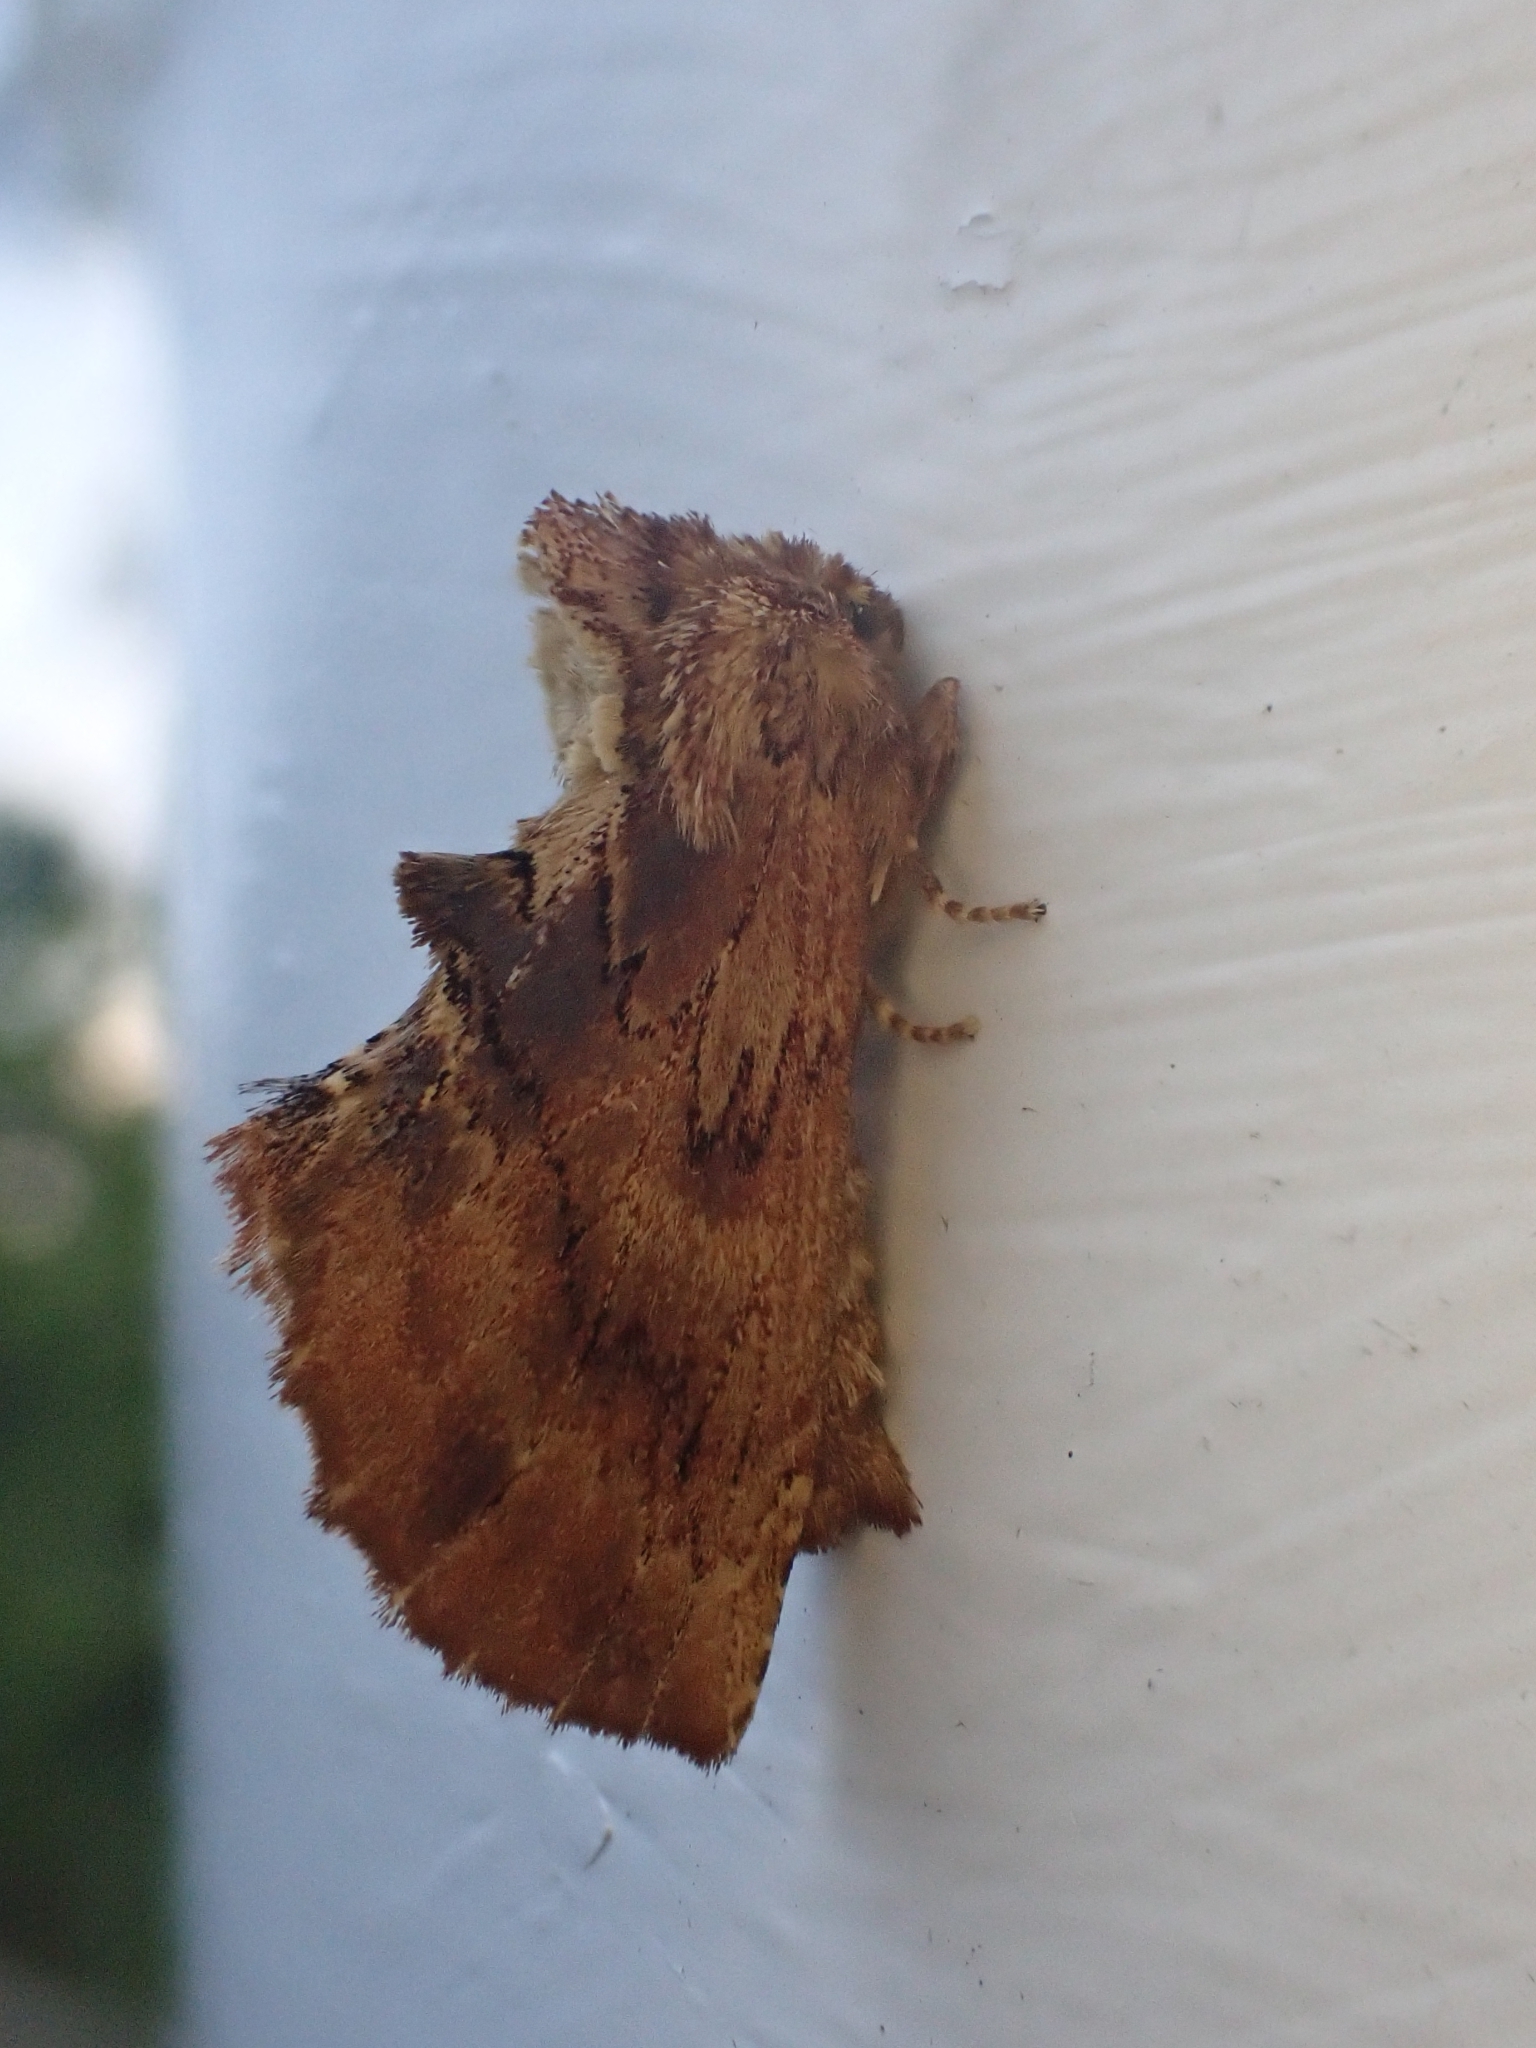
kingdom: Animalia
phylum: Arthropoda
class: Insecta
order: Lepidoptera
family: Notodontidae
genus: Ptilodon
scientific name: Ptilodon capucina
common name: Coxcomb prominent
